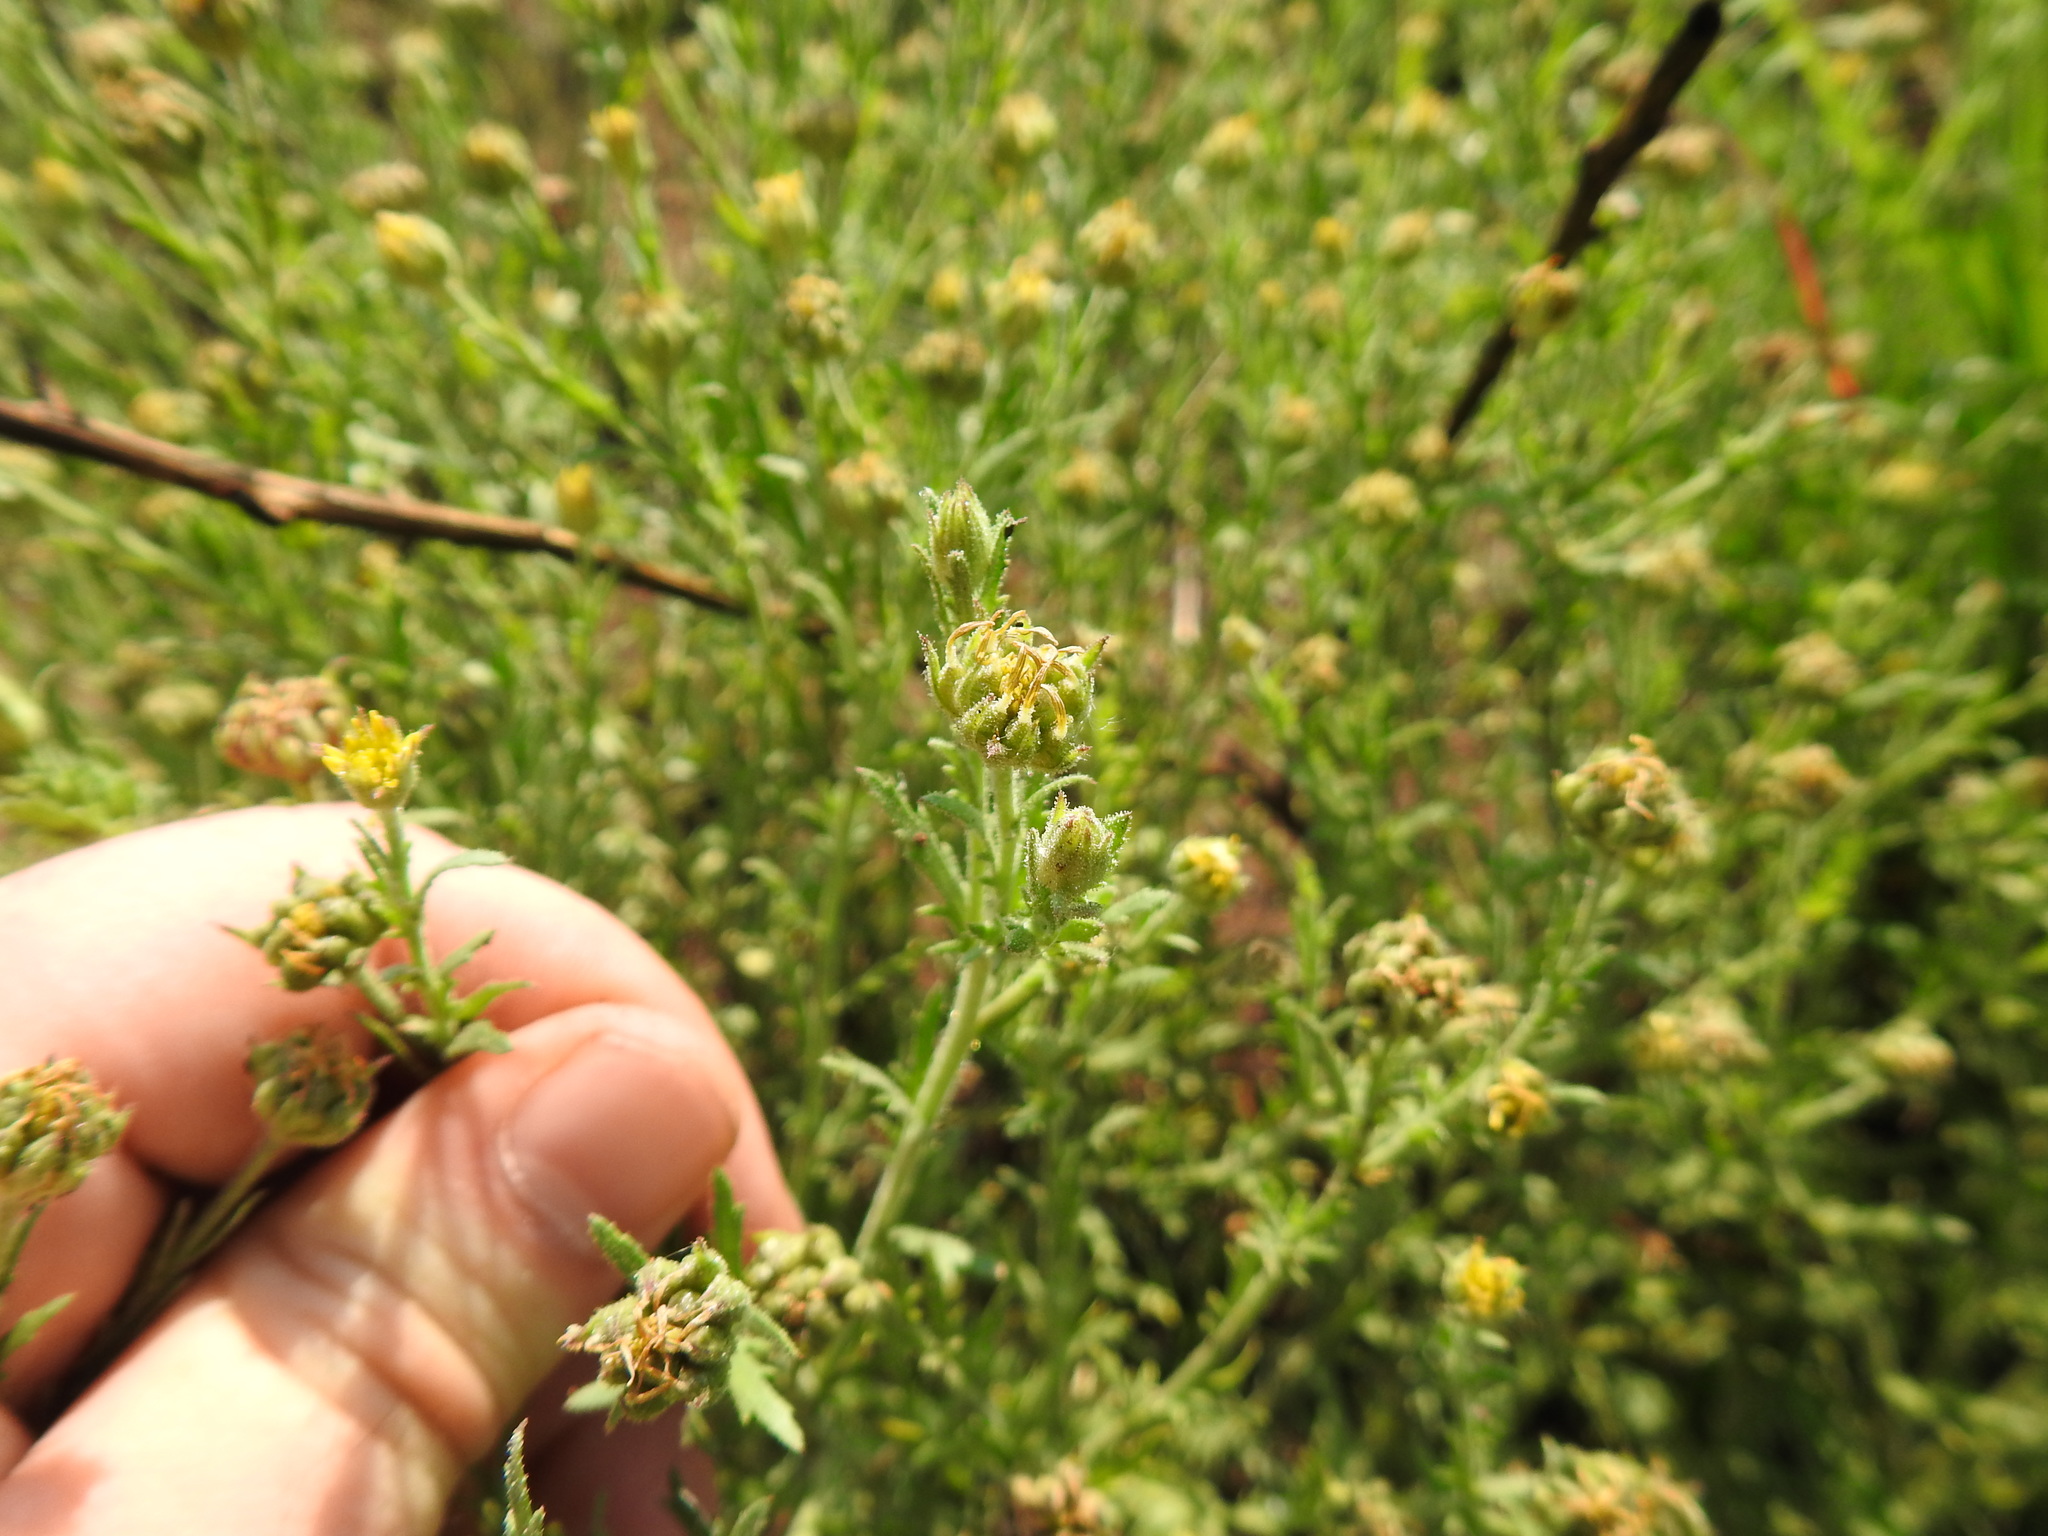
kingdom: Plantae
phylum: Tracheophyta
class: Magnoliopsida
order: Asterales
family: Asteraceae
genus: Osteospermum
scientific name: Osteospermum muricatum
